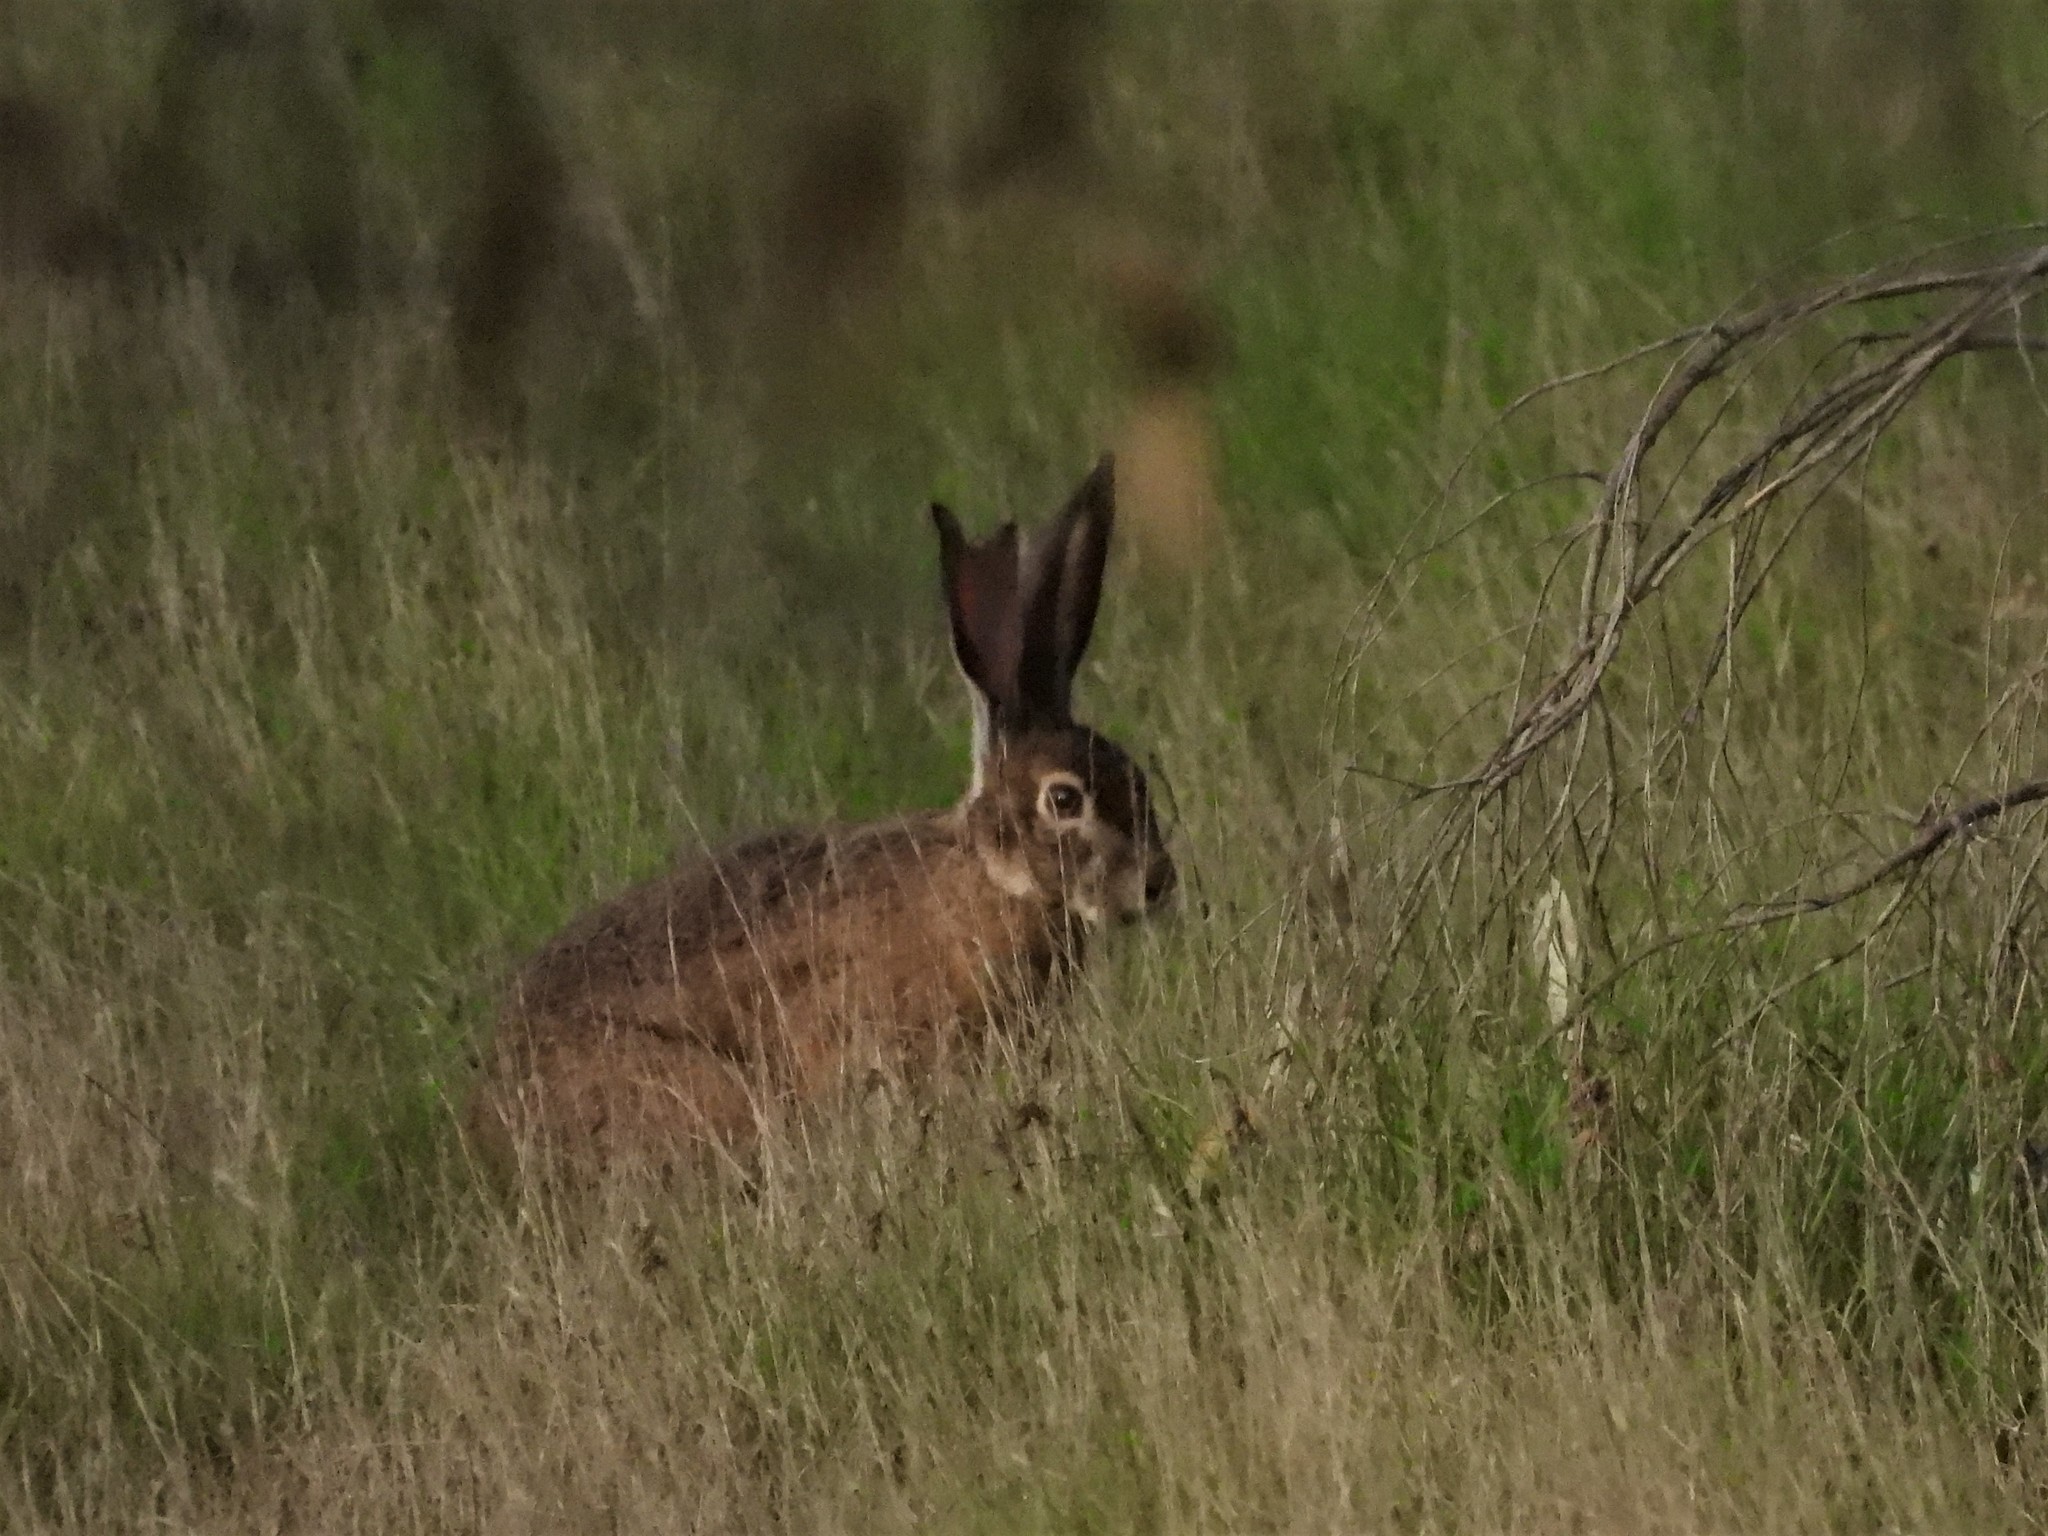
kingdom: Animalia
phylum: Chordata
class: Mammalia
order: Lagomorpha
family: Leporidae
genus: Lepus
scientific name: Lepus californicus
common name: Black-tailed jackrabbit
